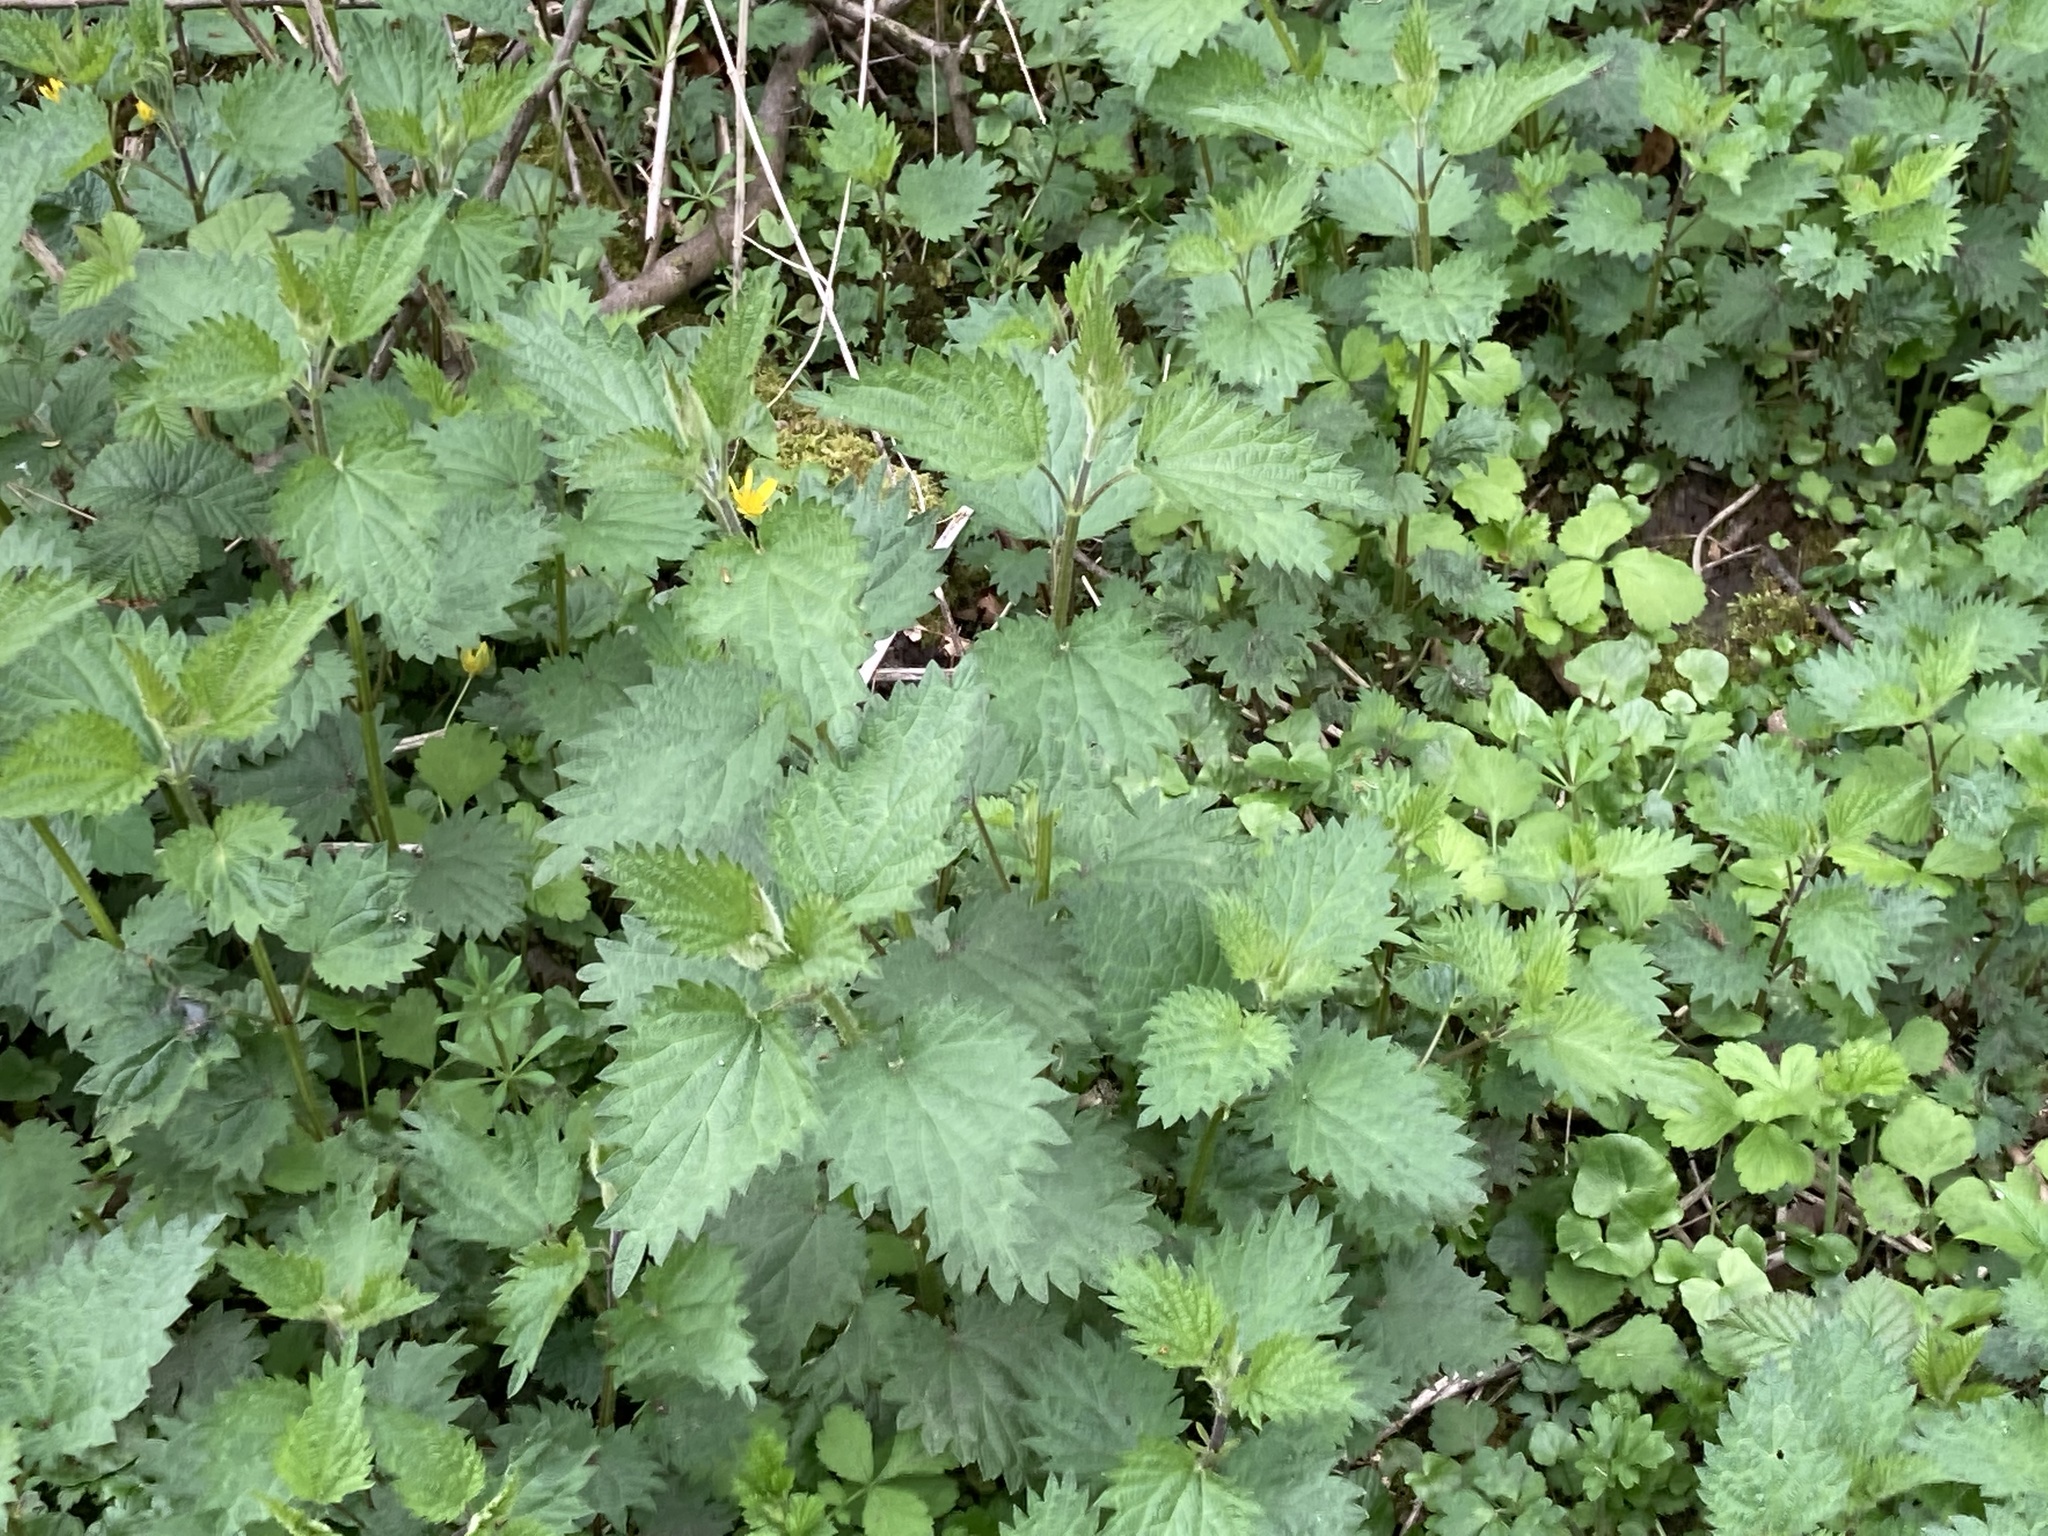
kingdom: Plantae
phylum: Tracheophyta
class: Magnoliopsida
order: Rosales
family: Urticaceae
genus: Urtica
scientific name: Urtica dioica
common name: Common nettle
